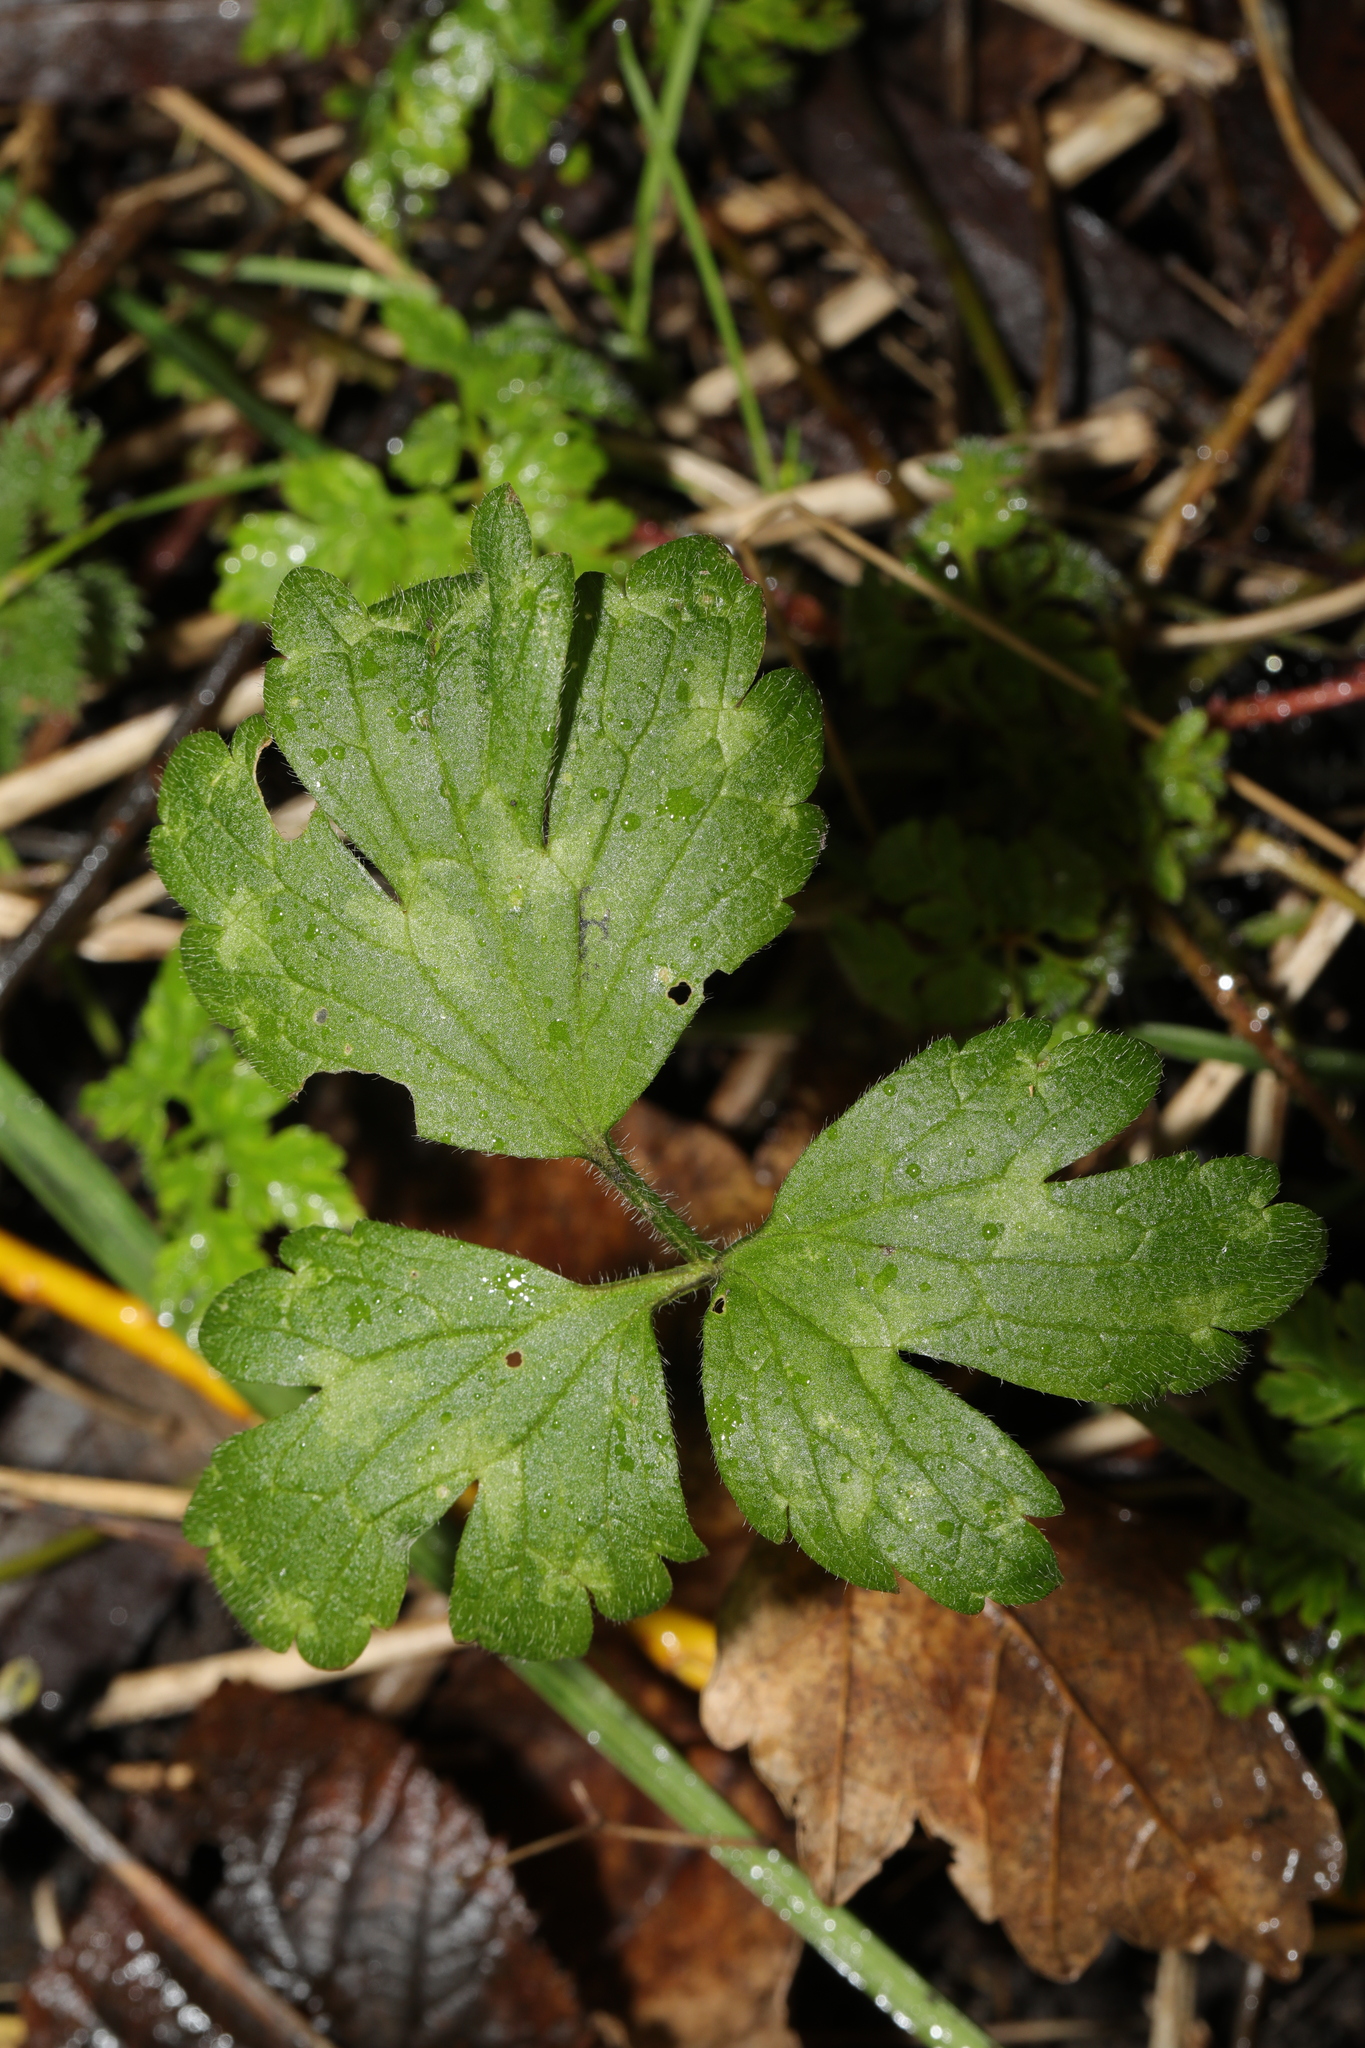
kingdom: Plantae
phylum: Tracheophyta
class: Magnoliopsida
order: Ranunculales
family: Ranunculaceae
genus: Ranunculus
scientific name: Ranunculus repens
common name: Creeping buttercup
